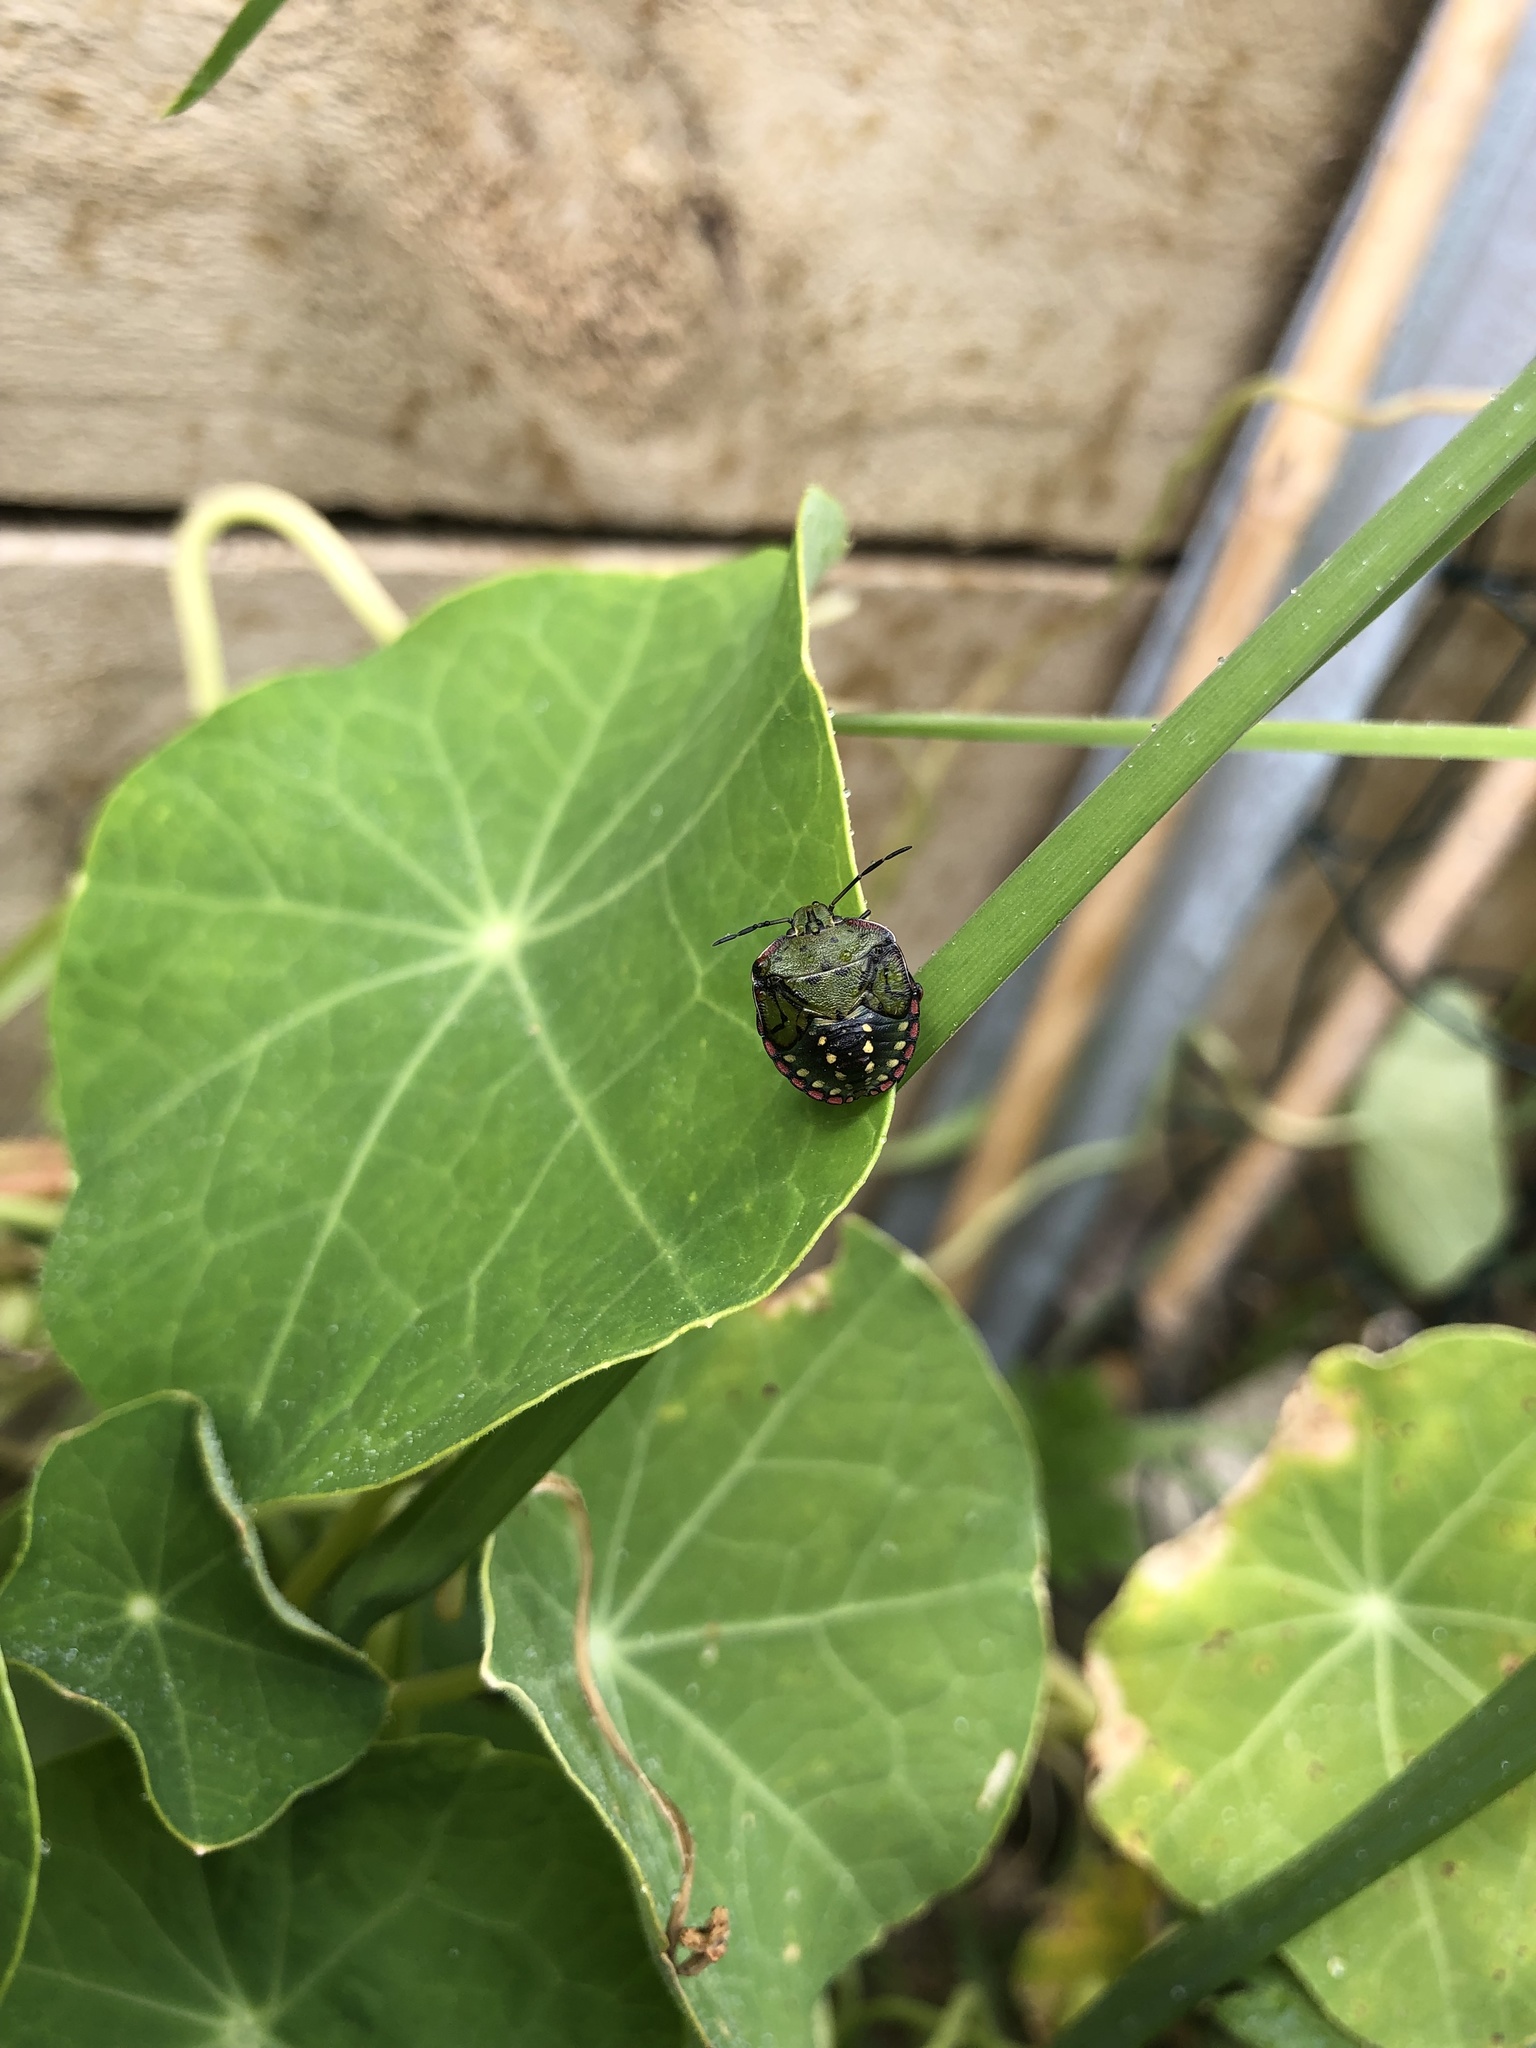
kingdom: Animalia
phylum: Arthropoda
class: Insecta
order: Hemiptera
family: Pentatomidae
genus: Nezara
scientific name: Nezara viridula
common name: Southern green stink bug
